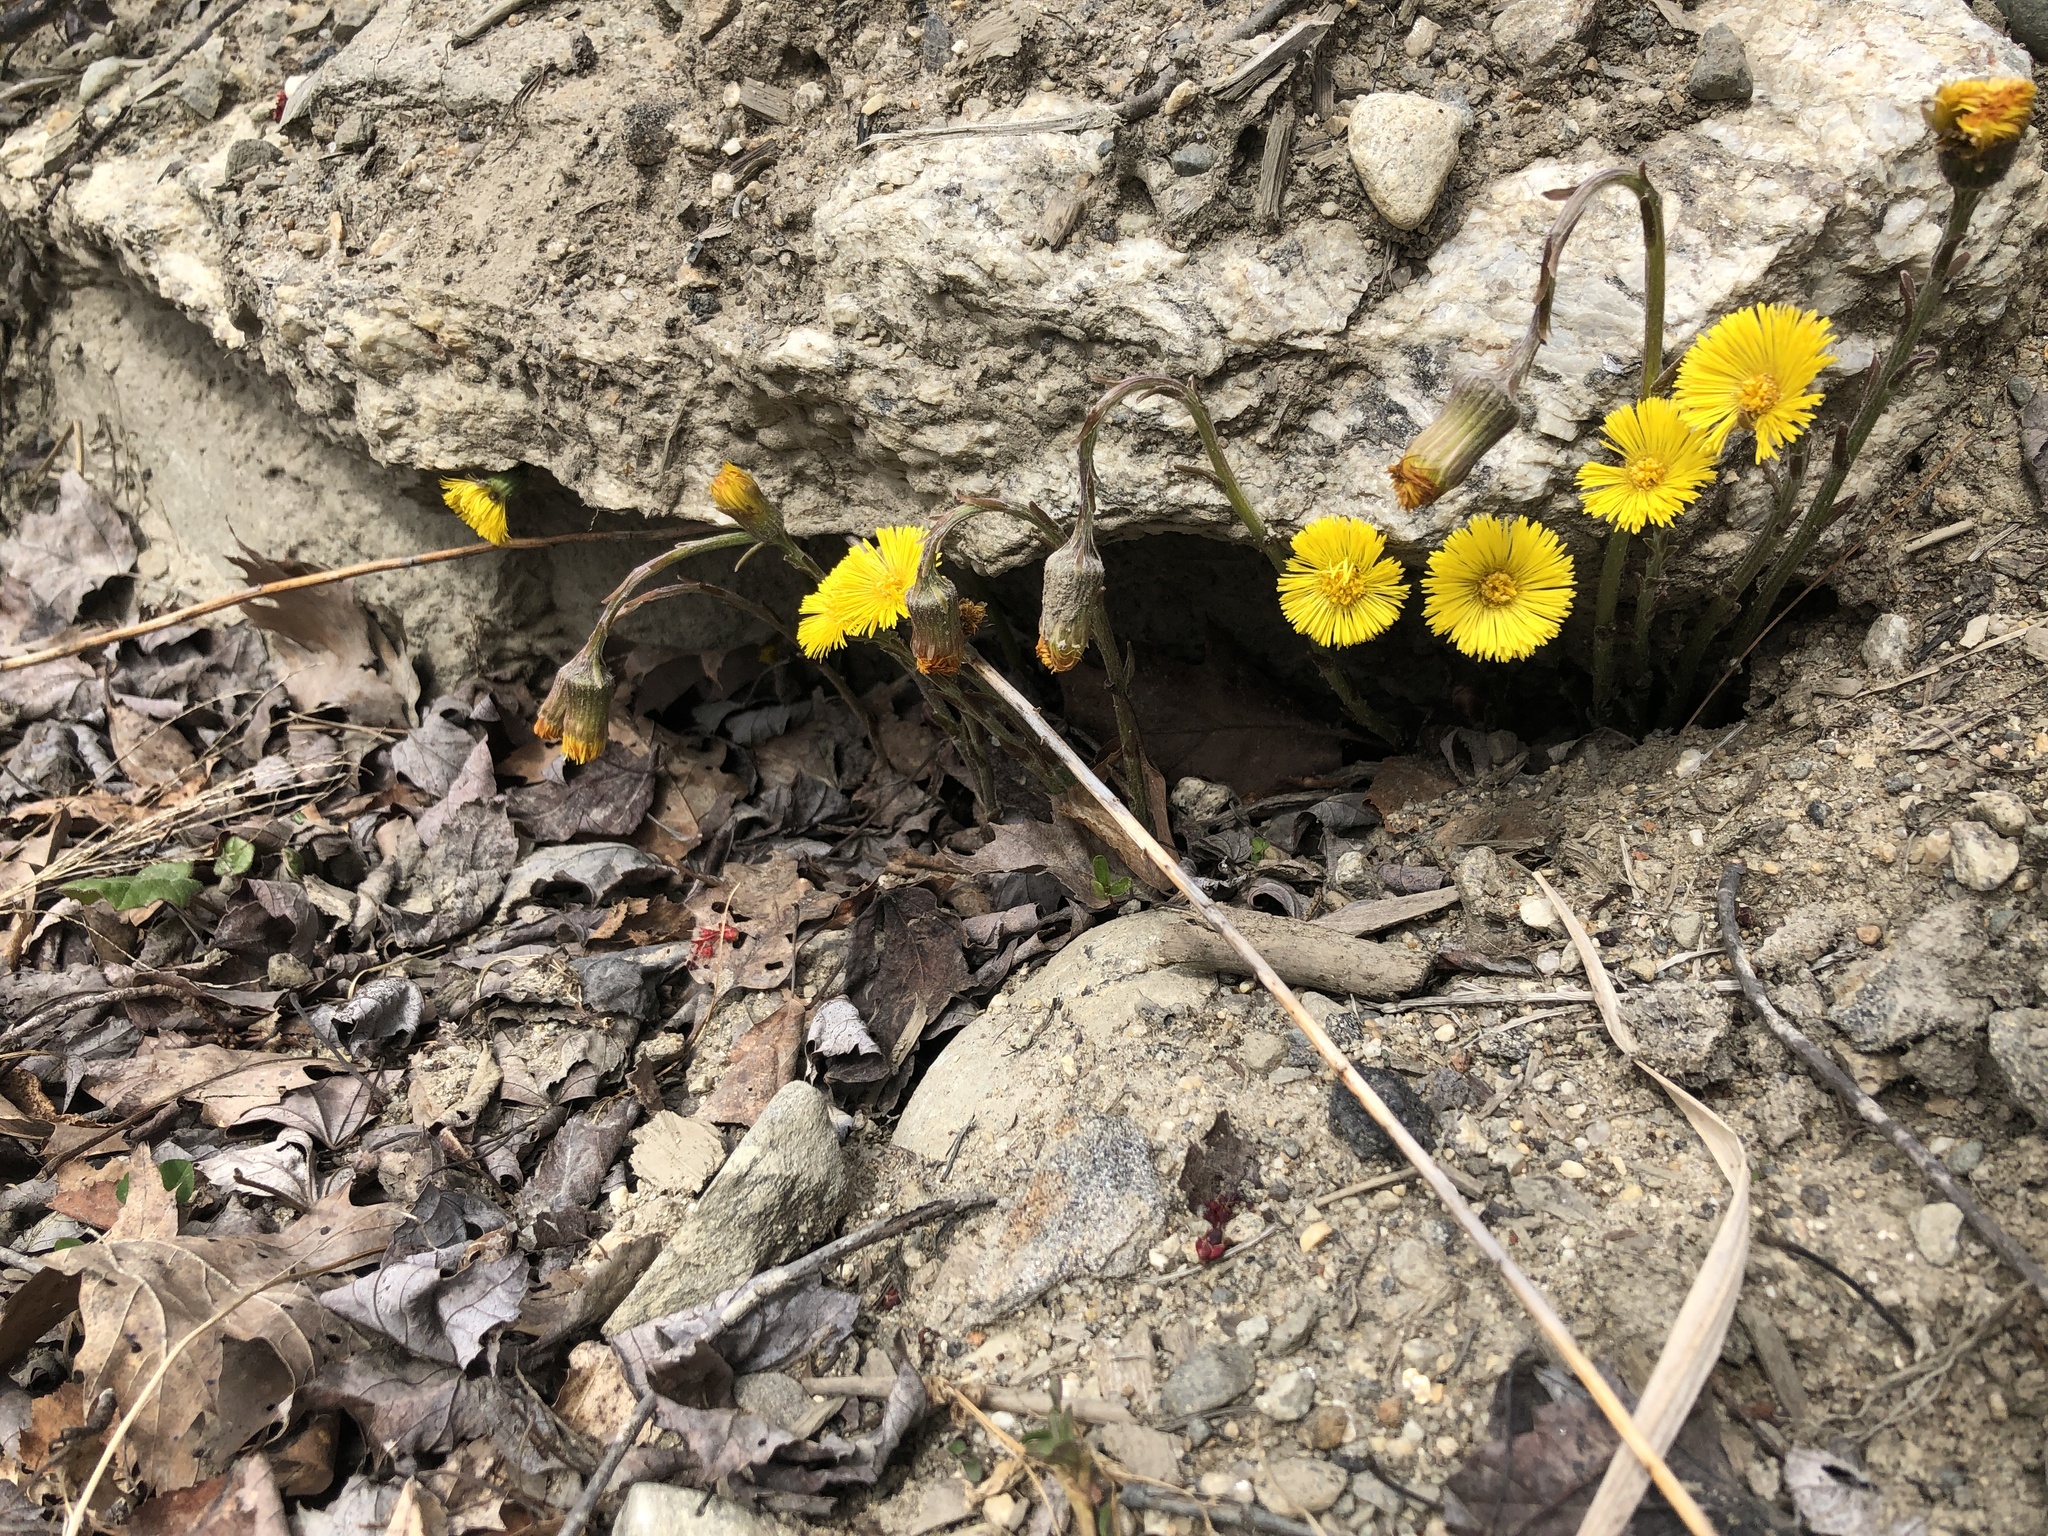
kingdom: Plantae
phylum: Tracheophyta
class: Magnoliopsida
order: Asterales
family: Asteraceae
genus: Tussilago
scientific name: Tussilago farfara
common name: Coltsfoot
